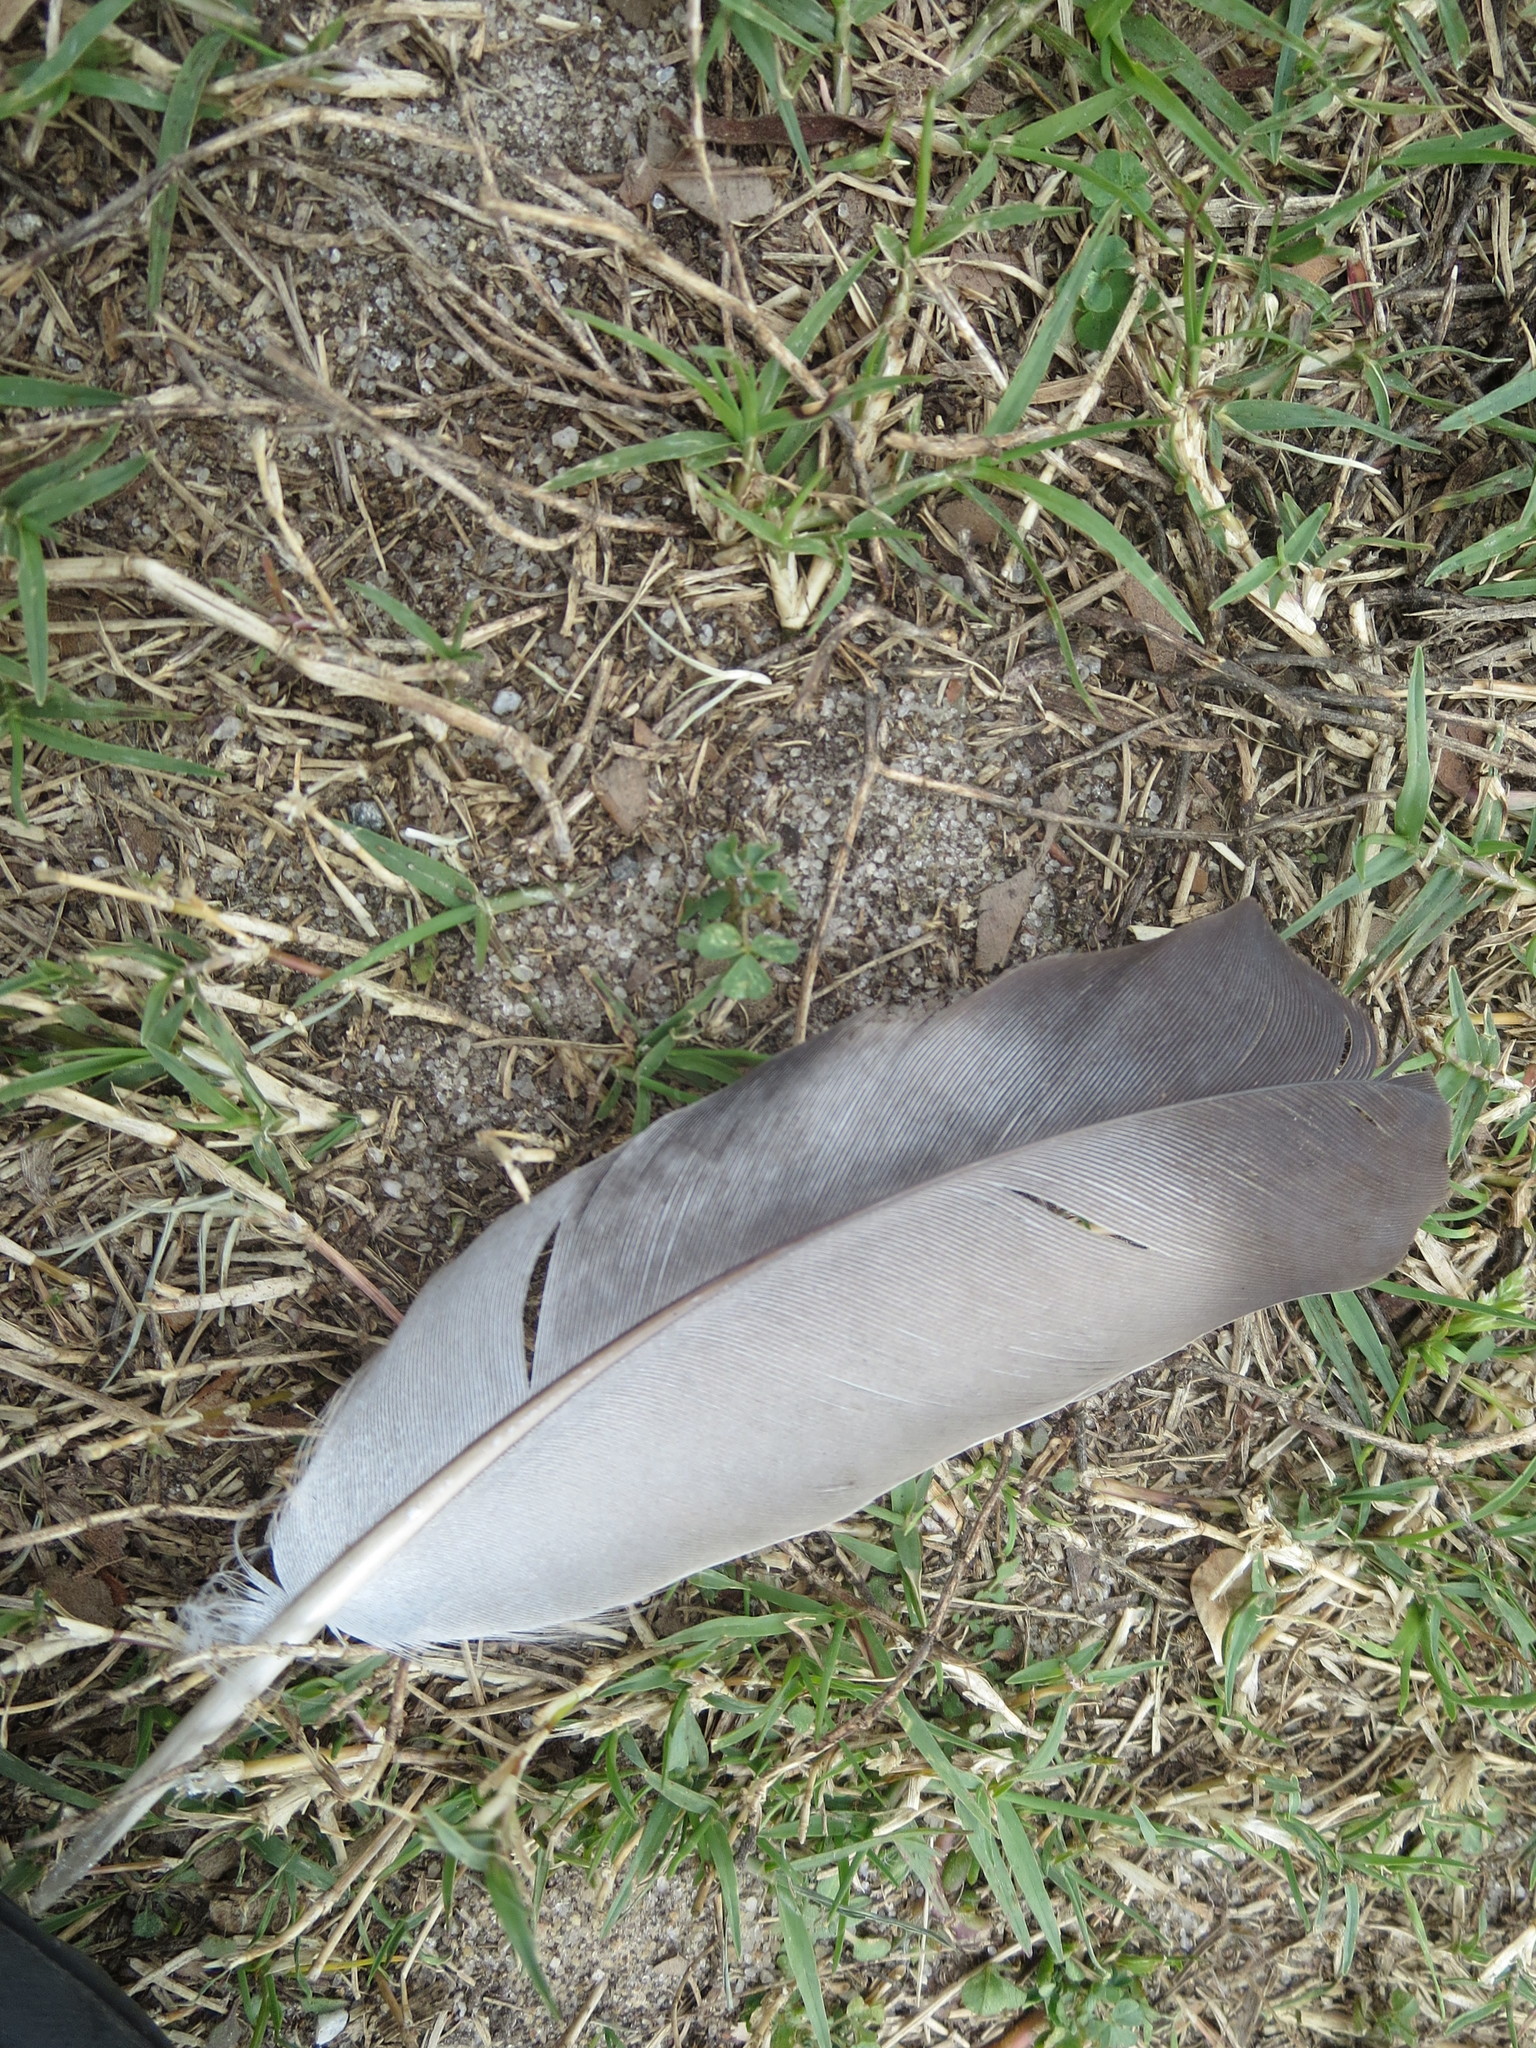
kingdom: Animalia
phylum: Chordata
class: Aves
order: Columbiformes
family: Columbidae
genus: Columba
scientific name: Columba livia
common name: Rock pigeon
